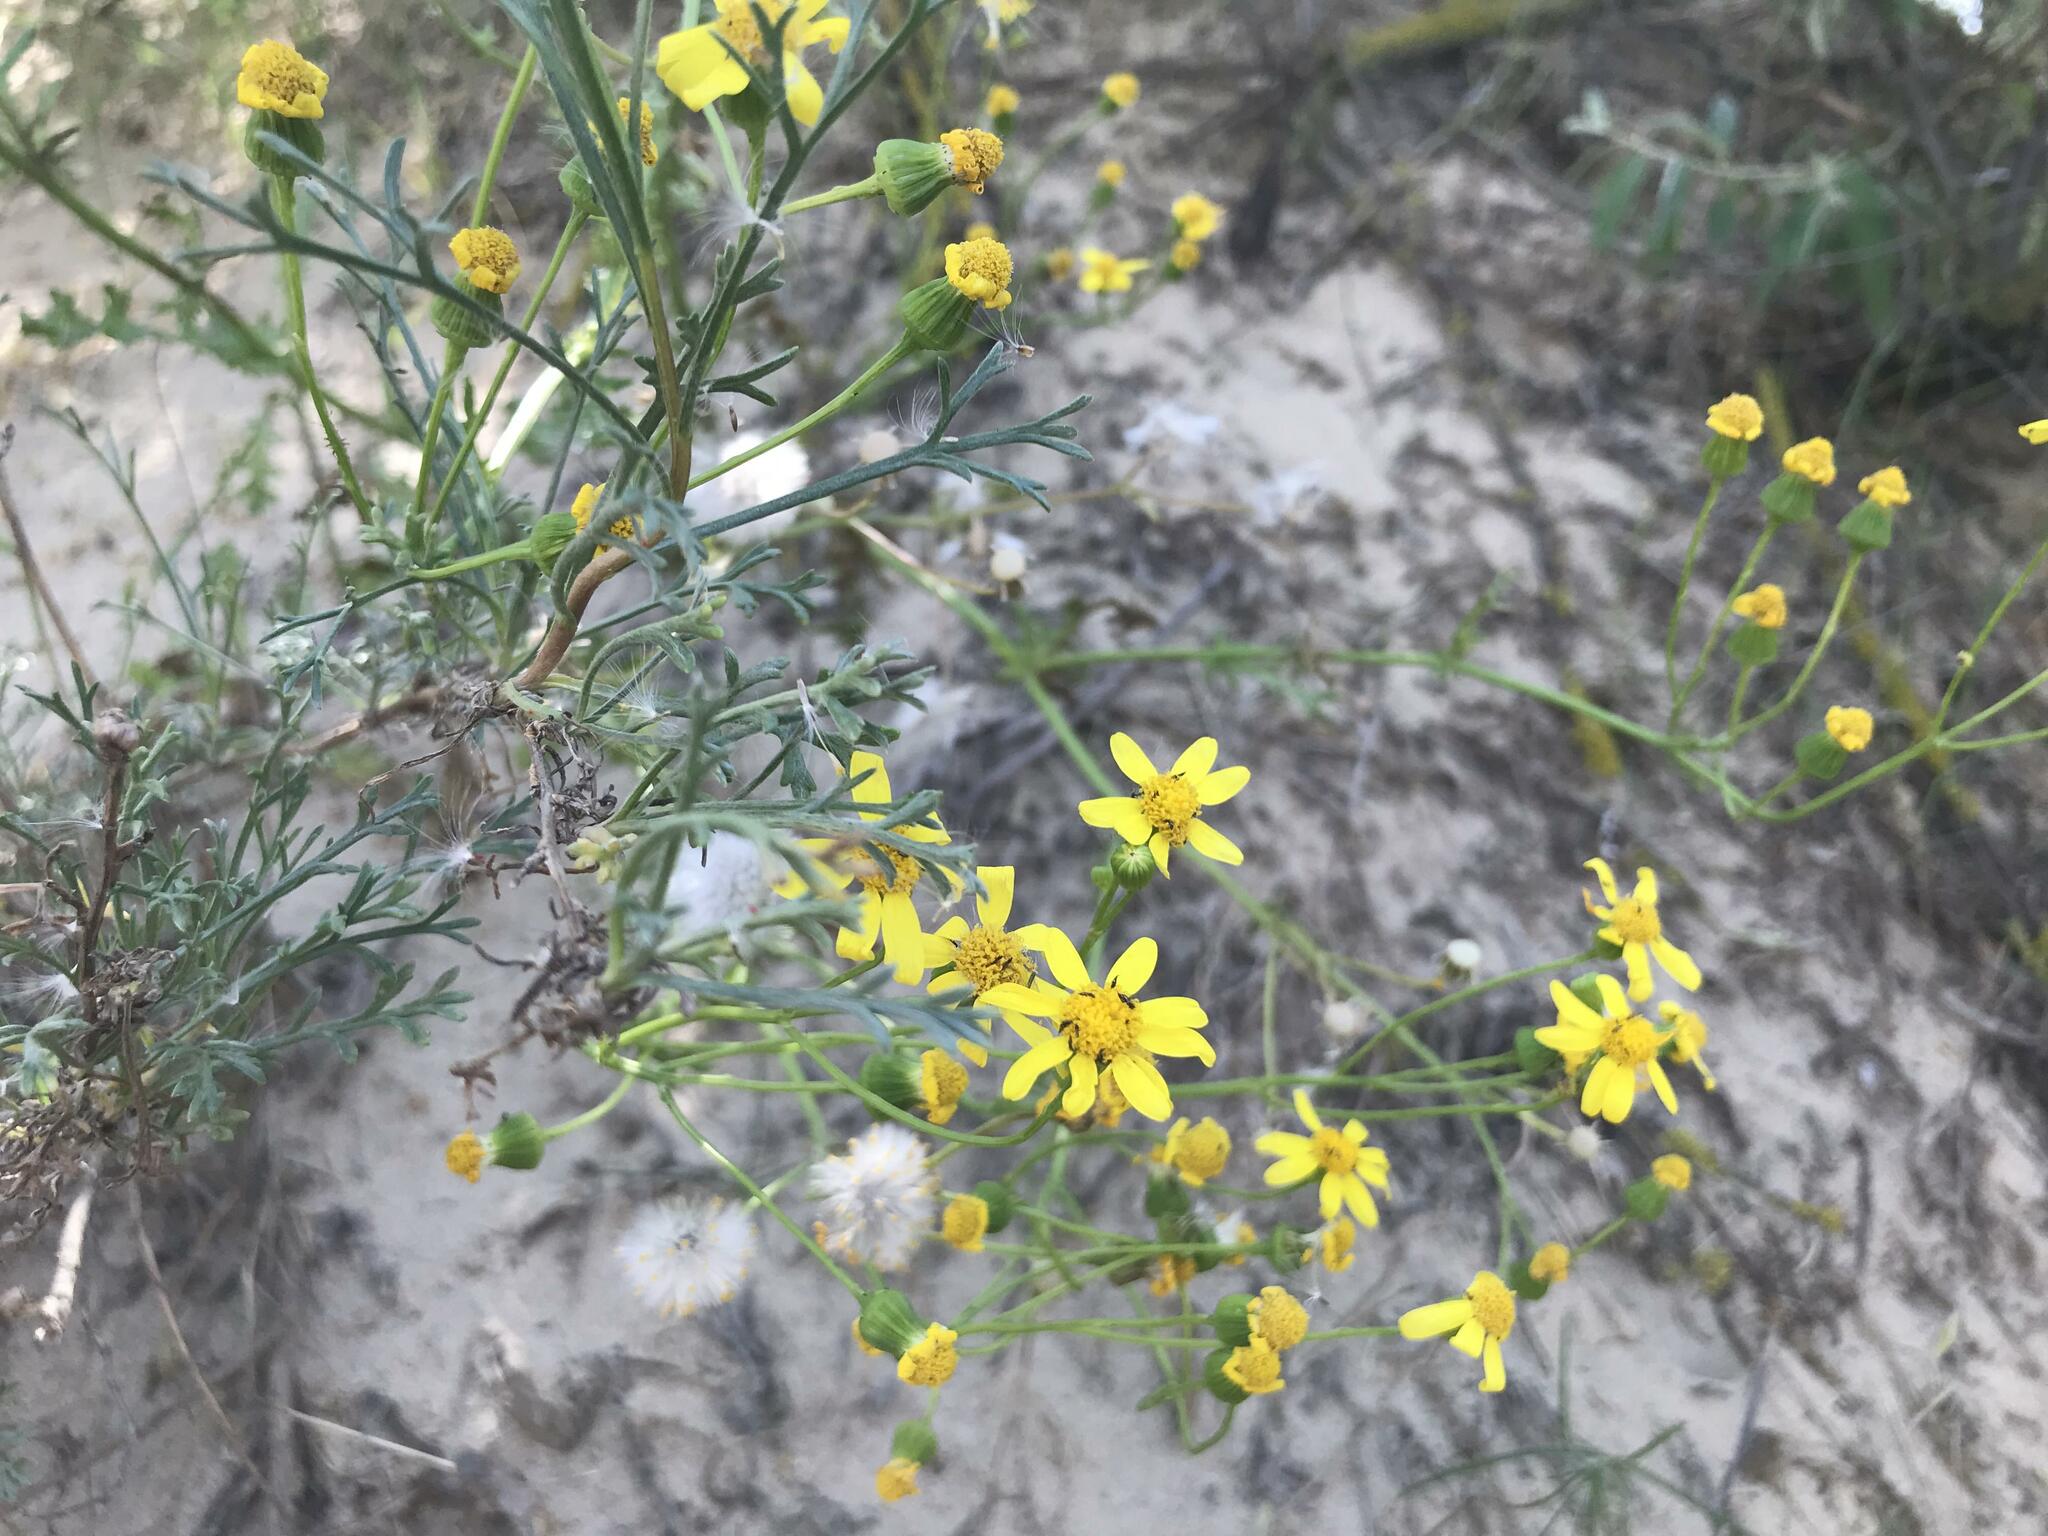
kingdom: Plantae
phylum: Tracheophyta
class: Magnoliopsida
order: Asterales
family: Asteraceae
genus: Senecio
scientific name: Senecio vernalis
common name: Eastern groundsel
